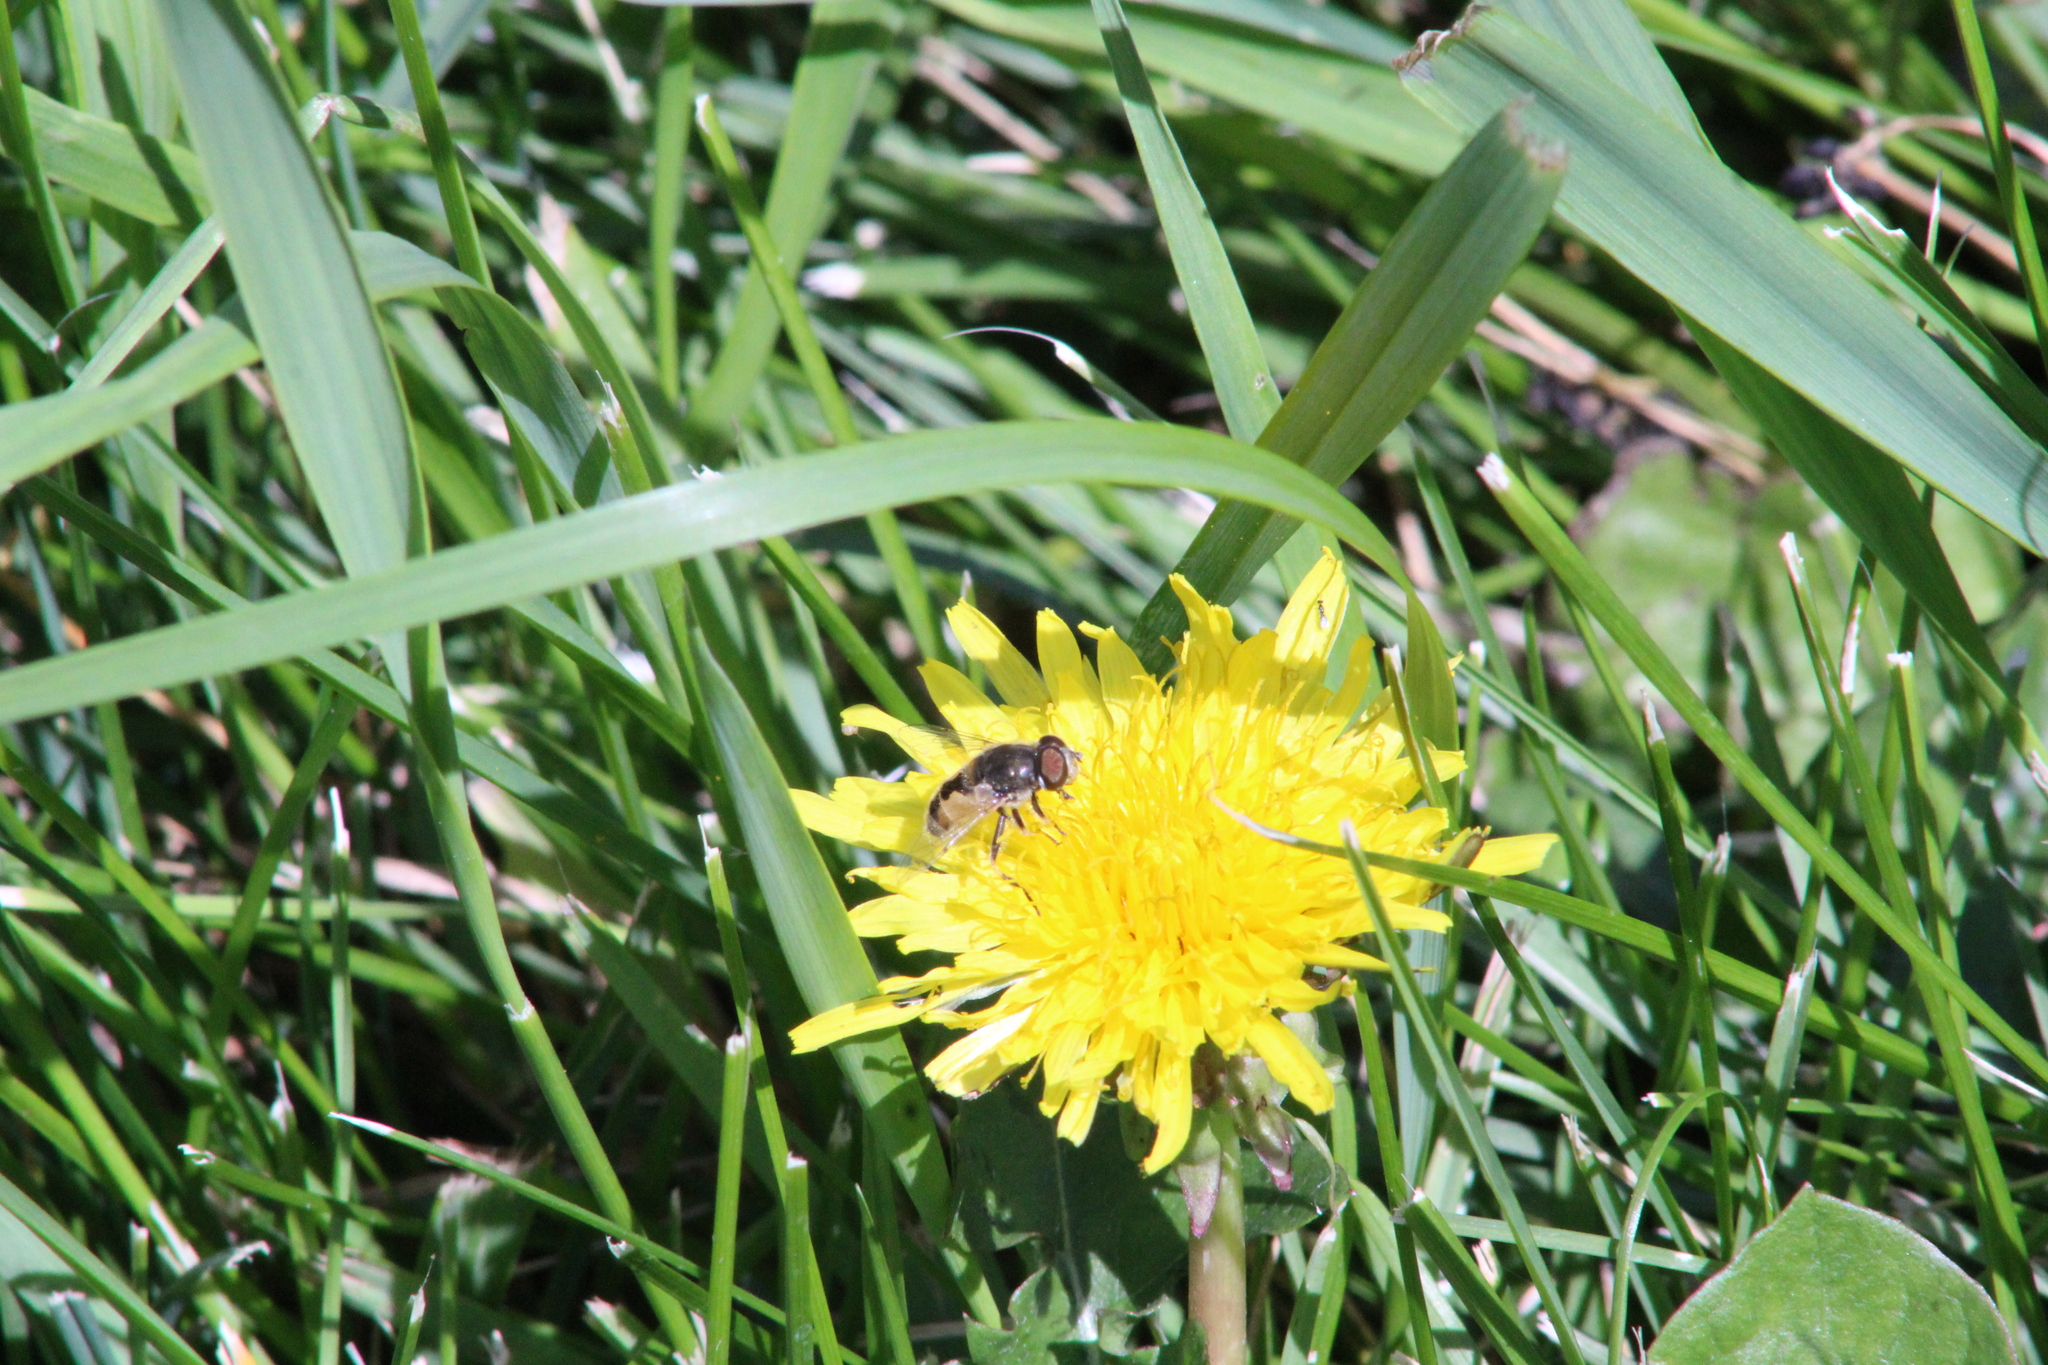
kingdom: Animalia
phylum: Arthropoda
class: Insecta
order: Diptera
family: Syrphidae
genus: Eristalis
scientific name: Eristalis arbustorum
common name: Hover fly
